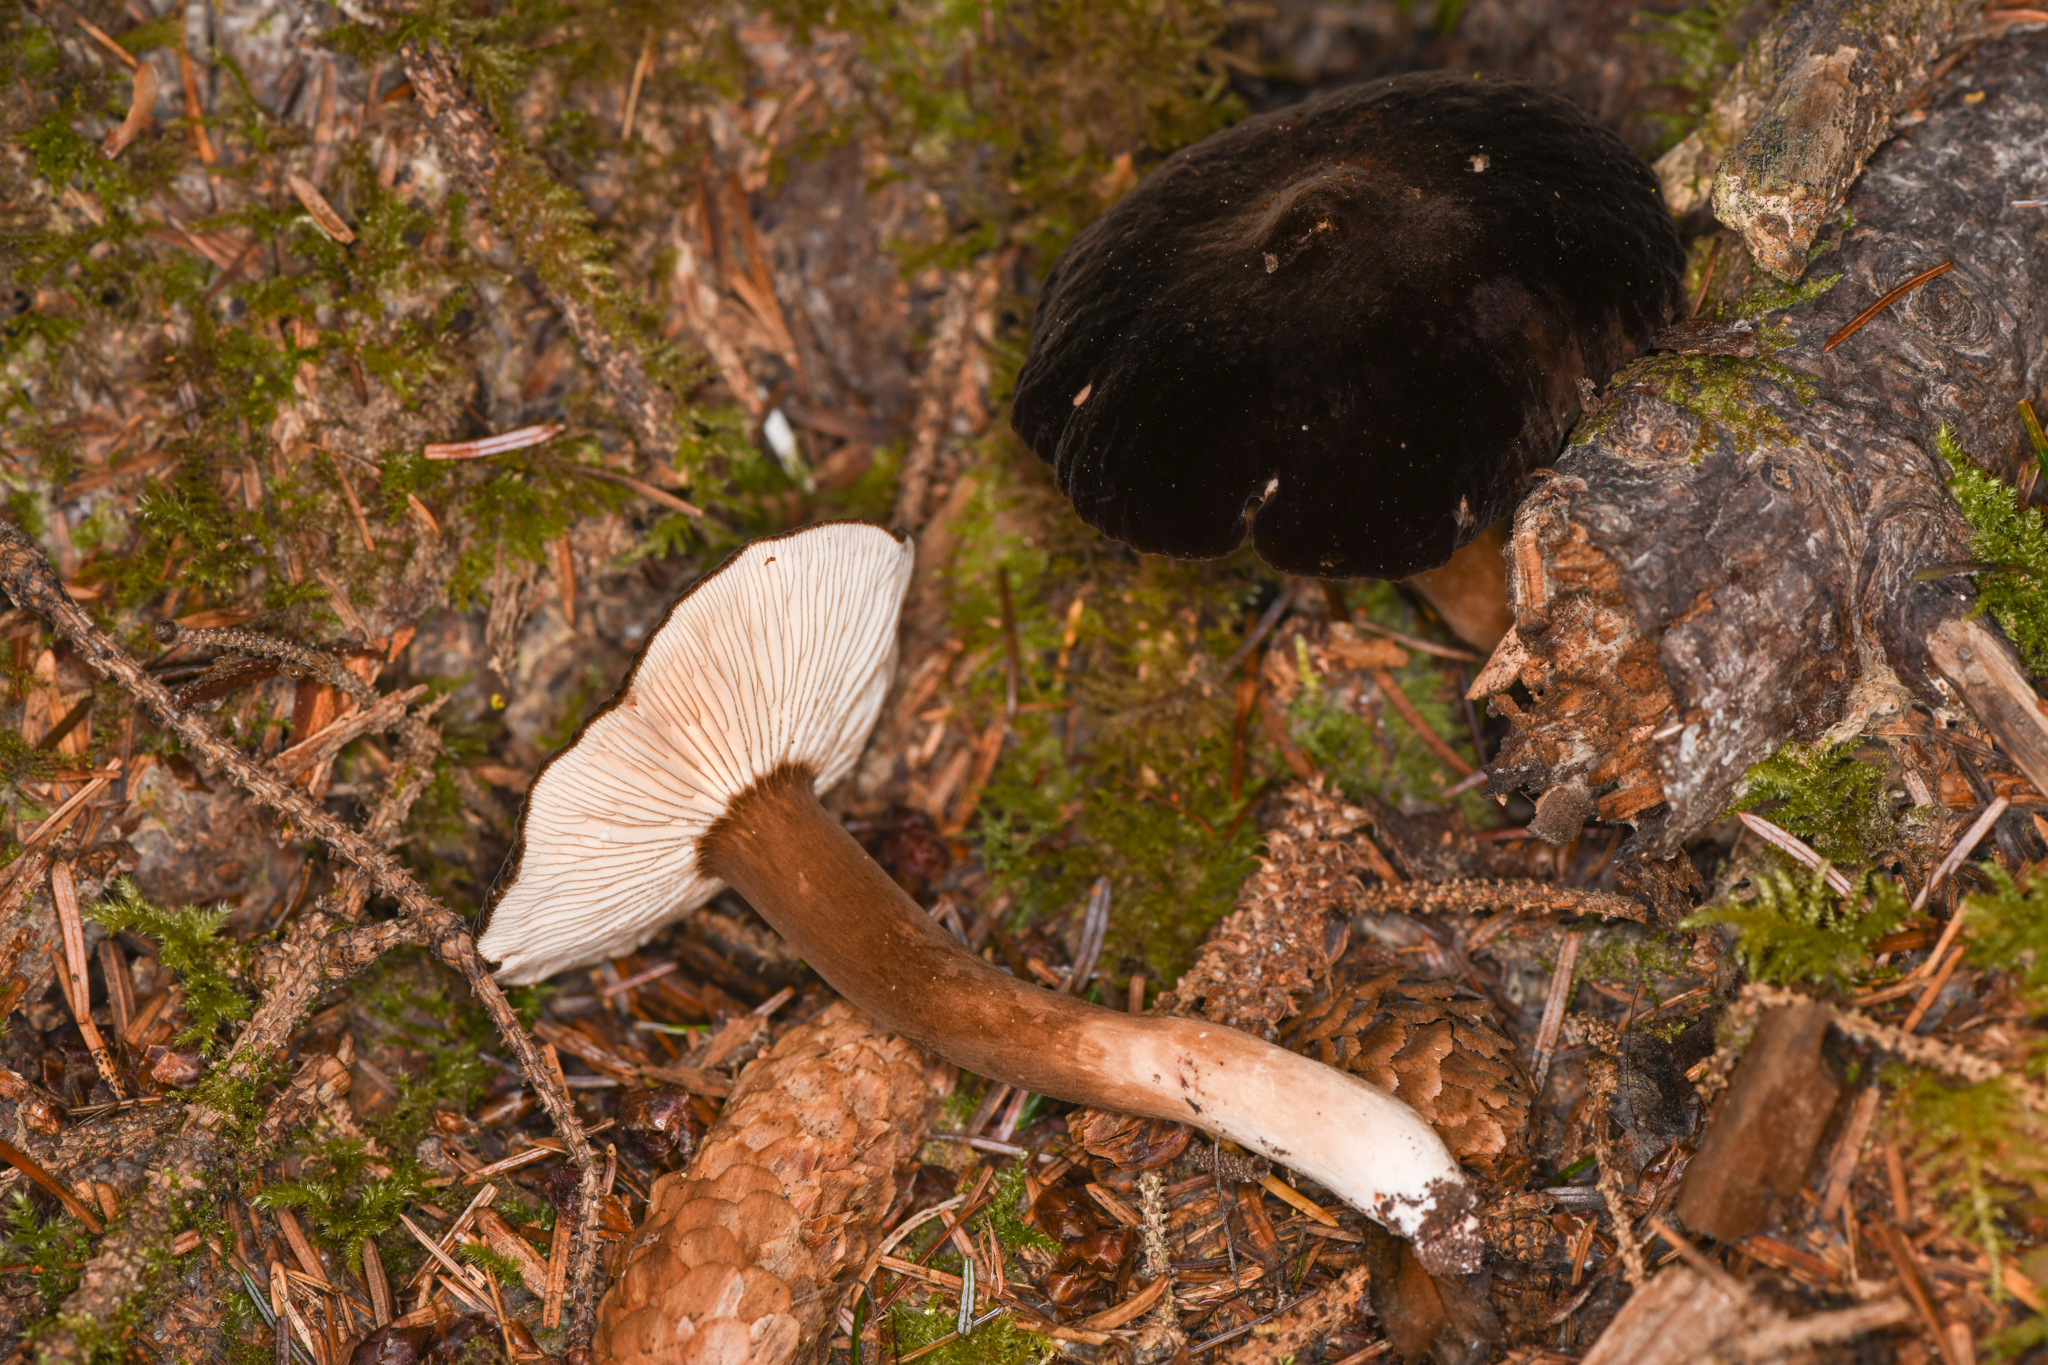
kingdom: Fungi
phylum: Basidiomycota
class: Agaricomycetes
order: Russulales
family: Russulaceae
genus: Lactarius
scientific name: Lactarius fallax
